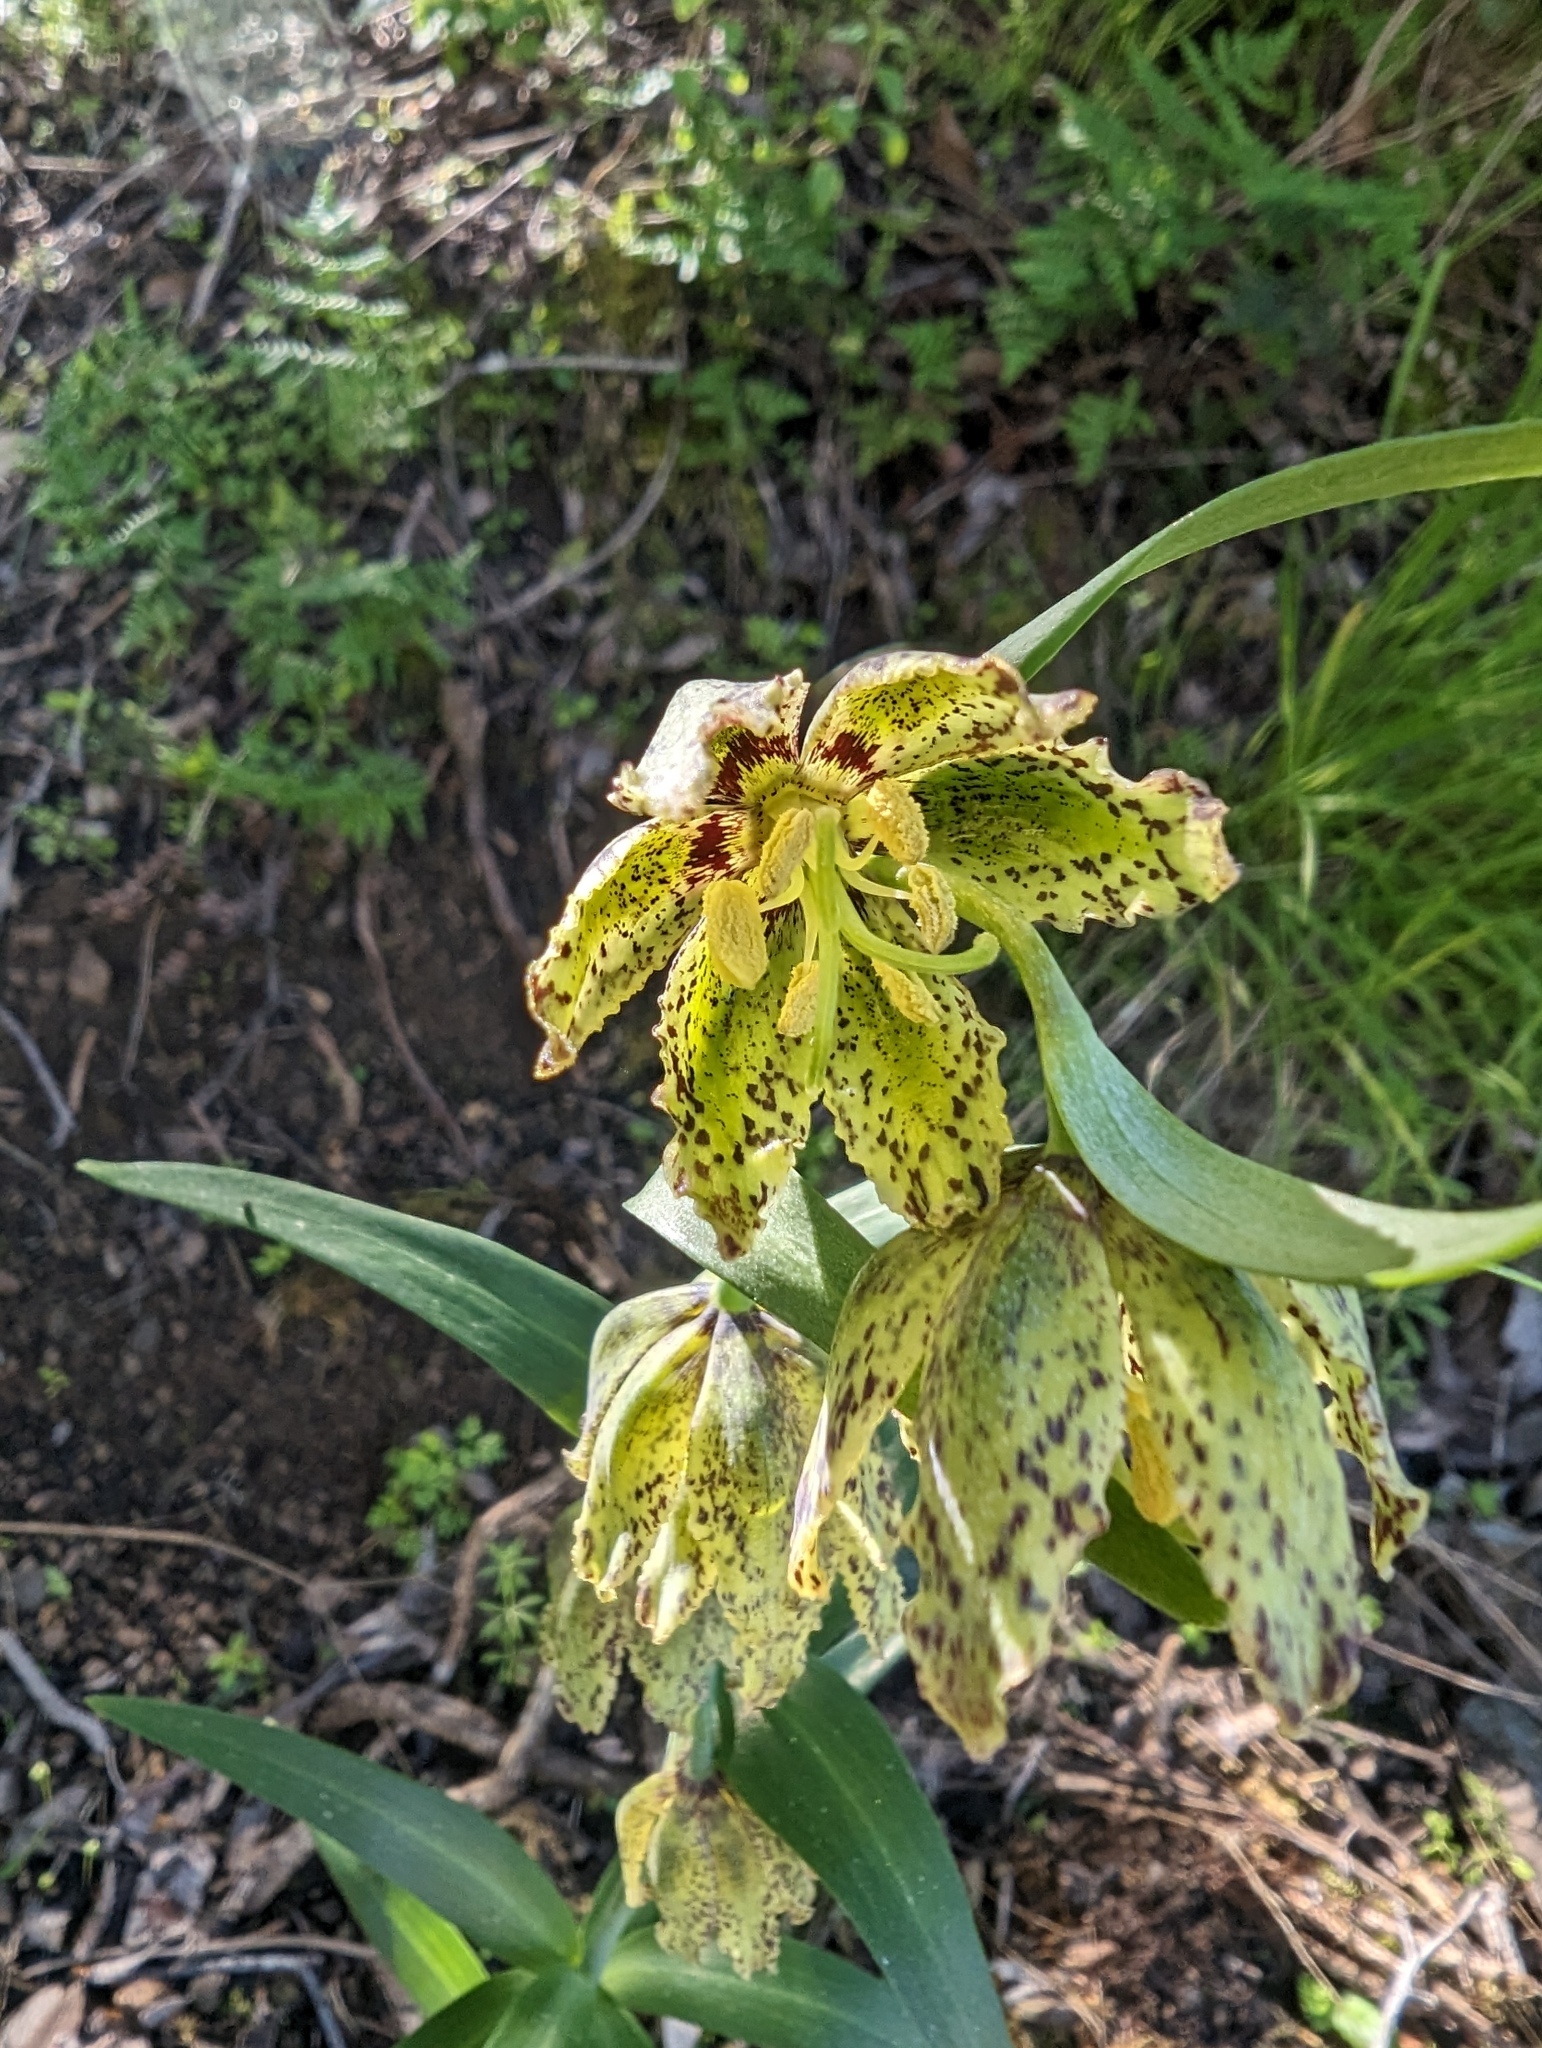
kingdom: Plantae
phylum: Tracheophyta
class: Liliopsida
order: Liliales
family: Liliaceae
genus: Fritillaria
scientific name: Fritillaria affinis
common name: Ojai fritillary
